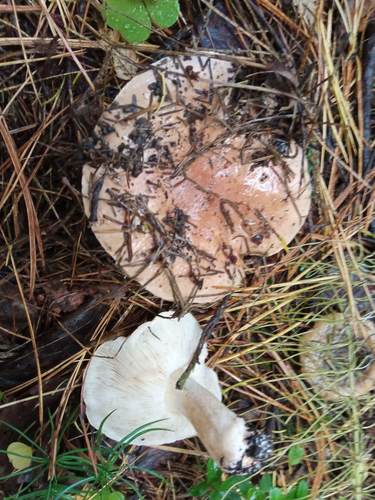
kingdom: Fungi
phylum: Basidiomycota
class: Agaricomycetes
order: Russulales
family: Russulaceae
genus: Lactarius
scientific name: Lactarius helvus
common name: Fenugreek milkcap
